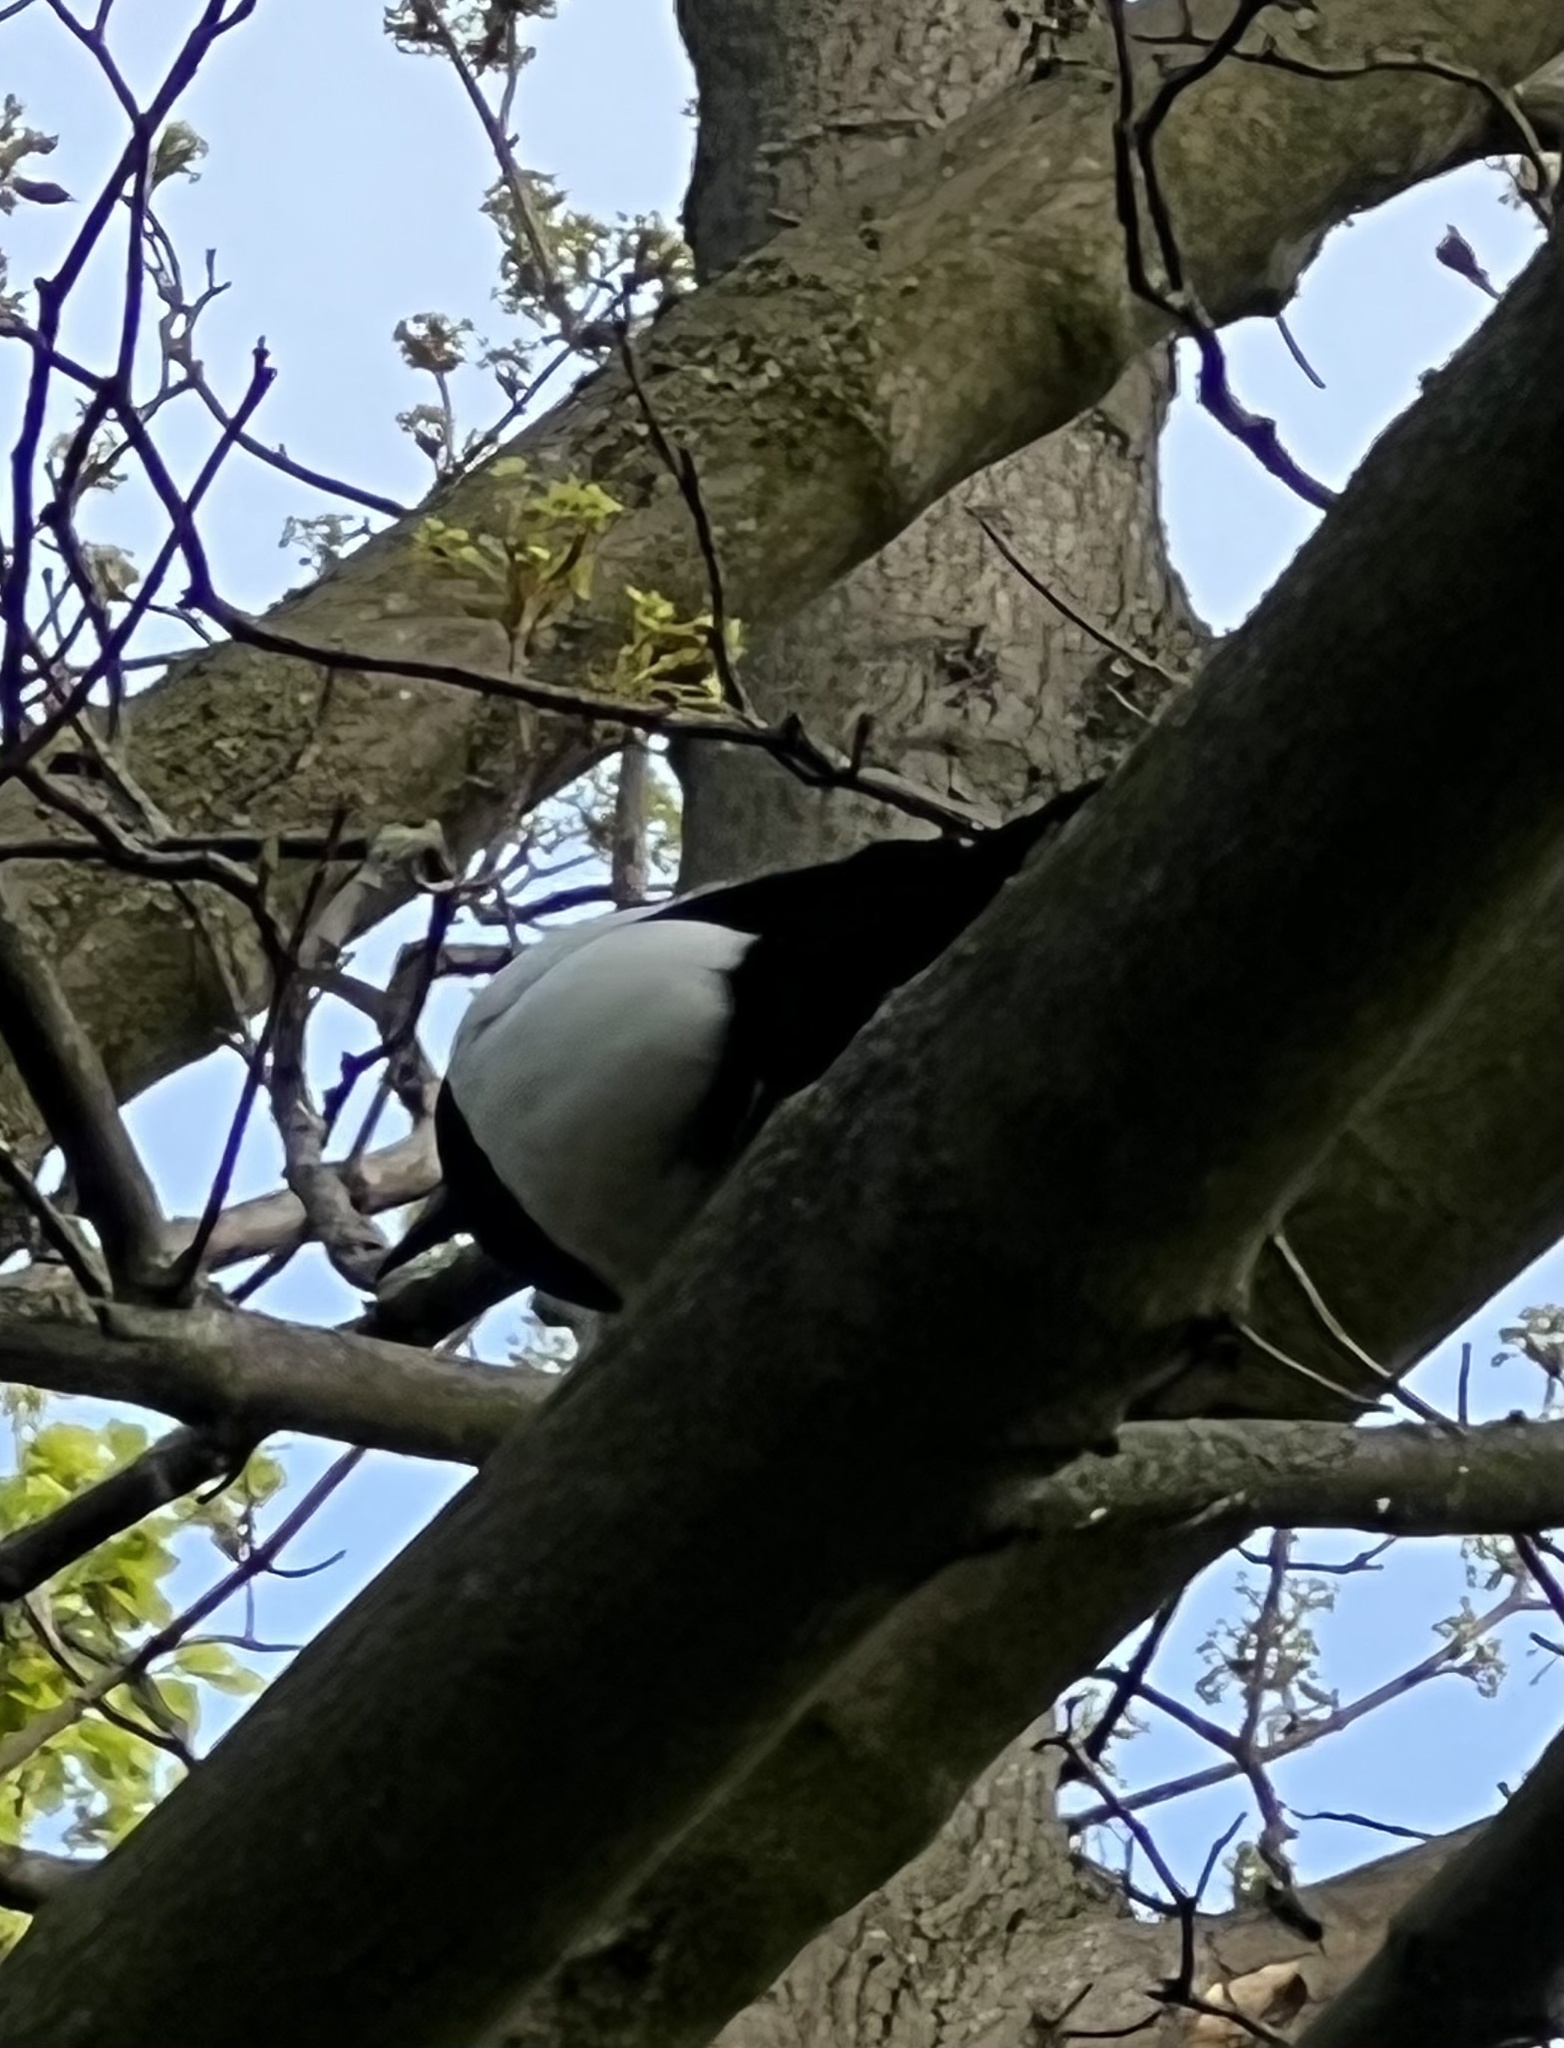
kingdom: Animalia
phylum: Chordata
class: Aves
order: Passeriformes
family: Corvidae
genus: Pica
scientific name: Pica pica
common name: Eurasian magpie
